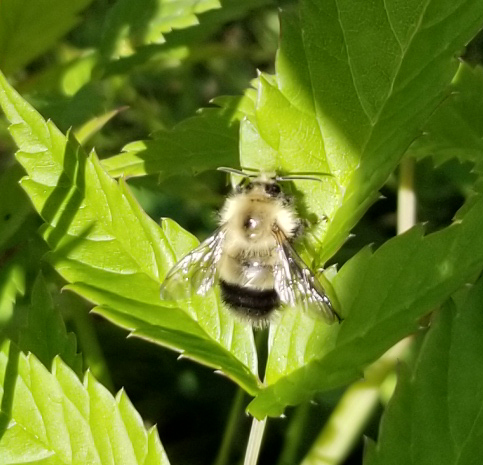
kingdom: Animalia
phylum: Arthropoda
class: Insecta
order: Hymenoptera
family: Apidae
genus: Bombus
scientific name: Bombus vagans
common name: Half-black bumble bee
